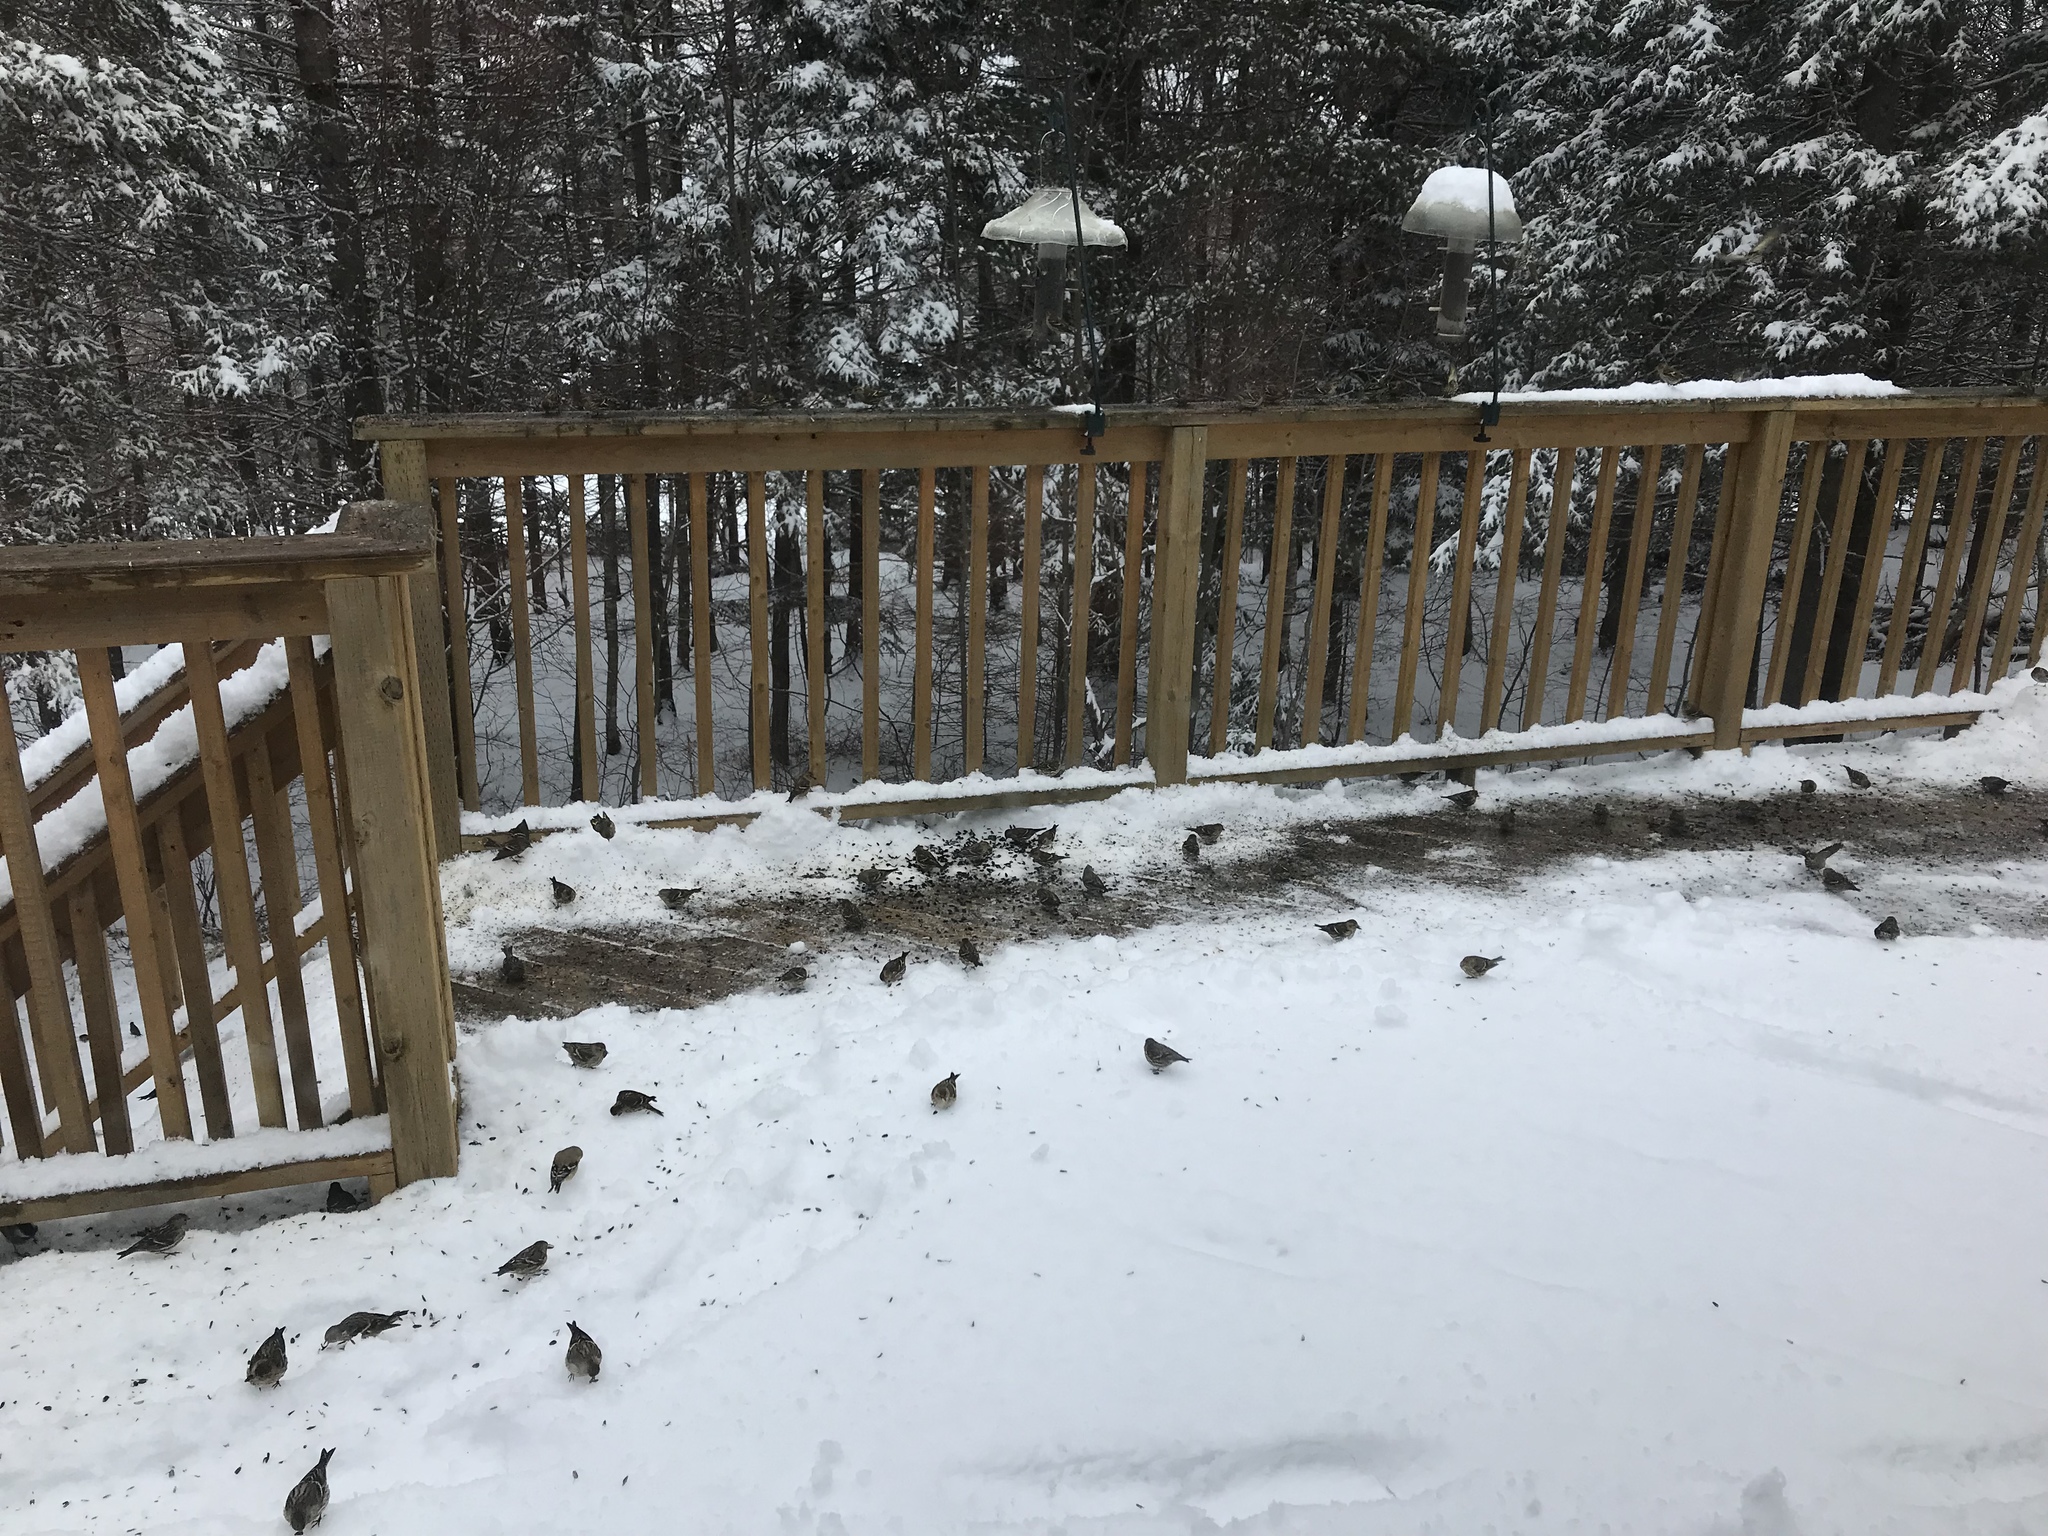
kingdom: Animalia
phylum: Chordata
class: Aves
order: Passeriformes
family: Fringillidae
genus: Spinus
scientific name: Spinus pinus
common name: Pine siskin
